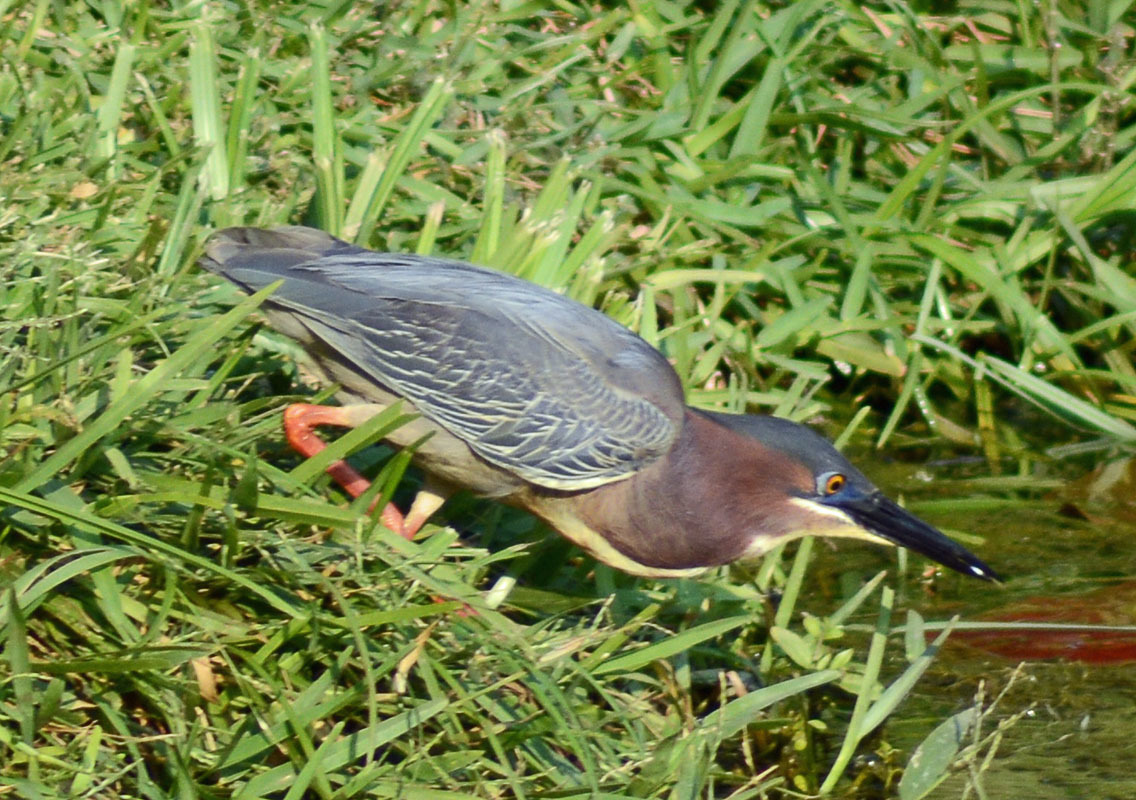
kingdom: Animalia
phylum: Chordata
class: Aves
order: Pelecaniformes
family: Ardeidae
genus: Butorides
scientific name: Butorides virescens
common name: Green heron
